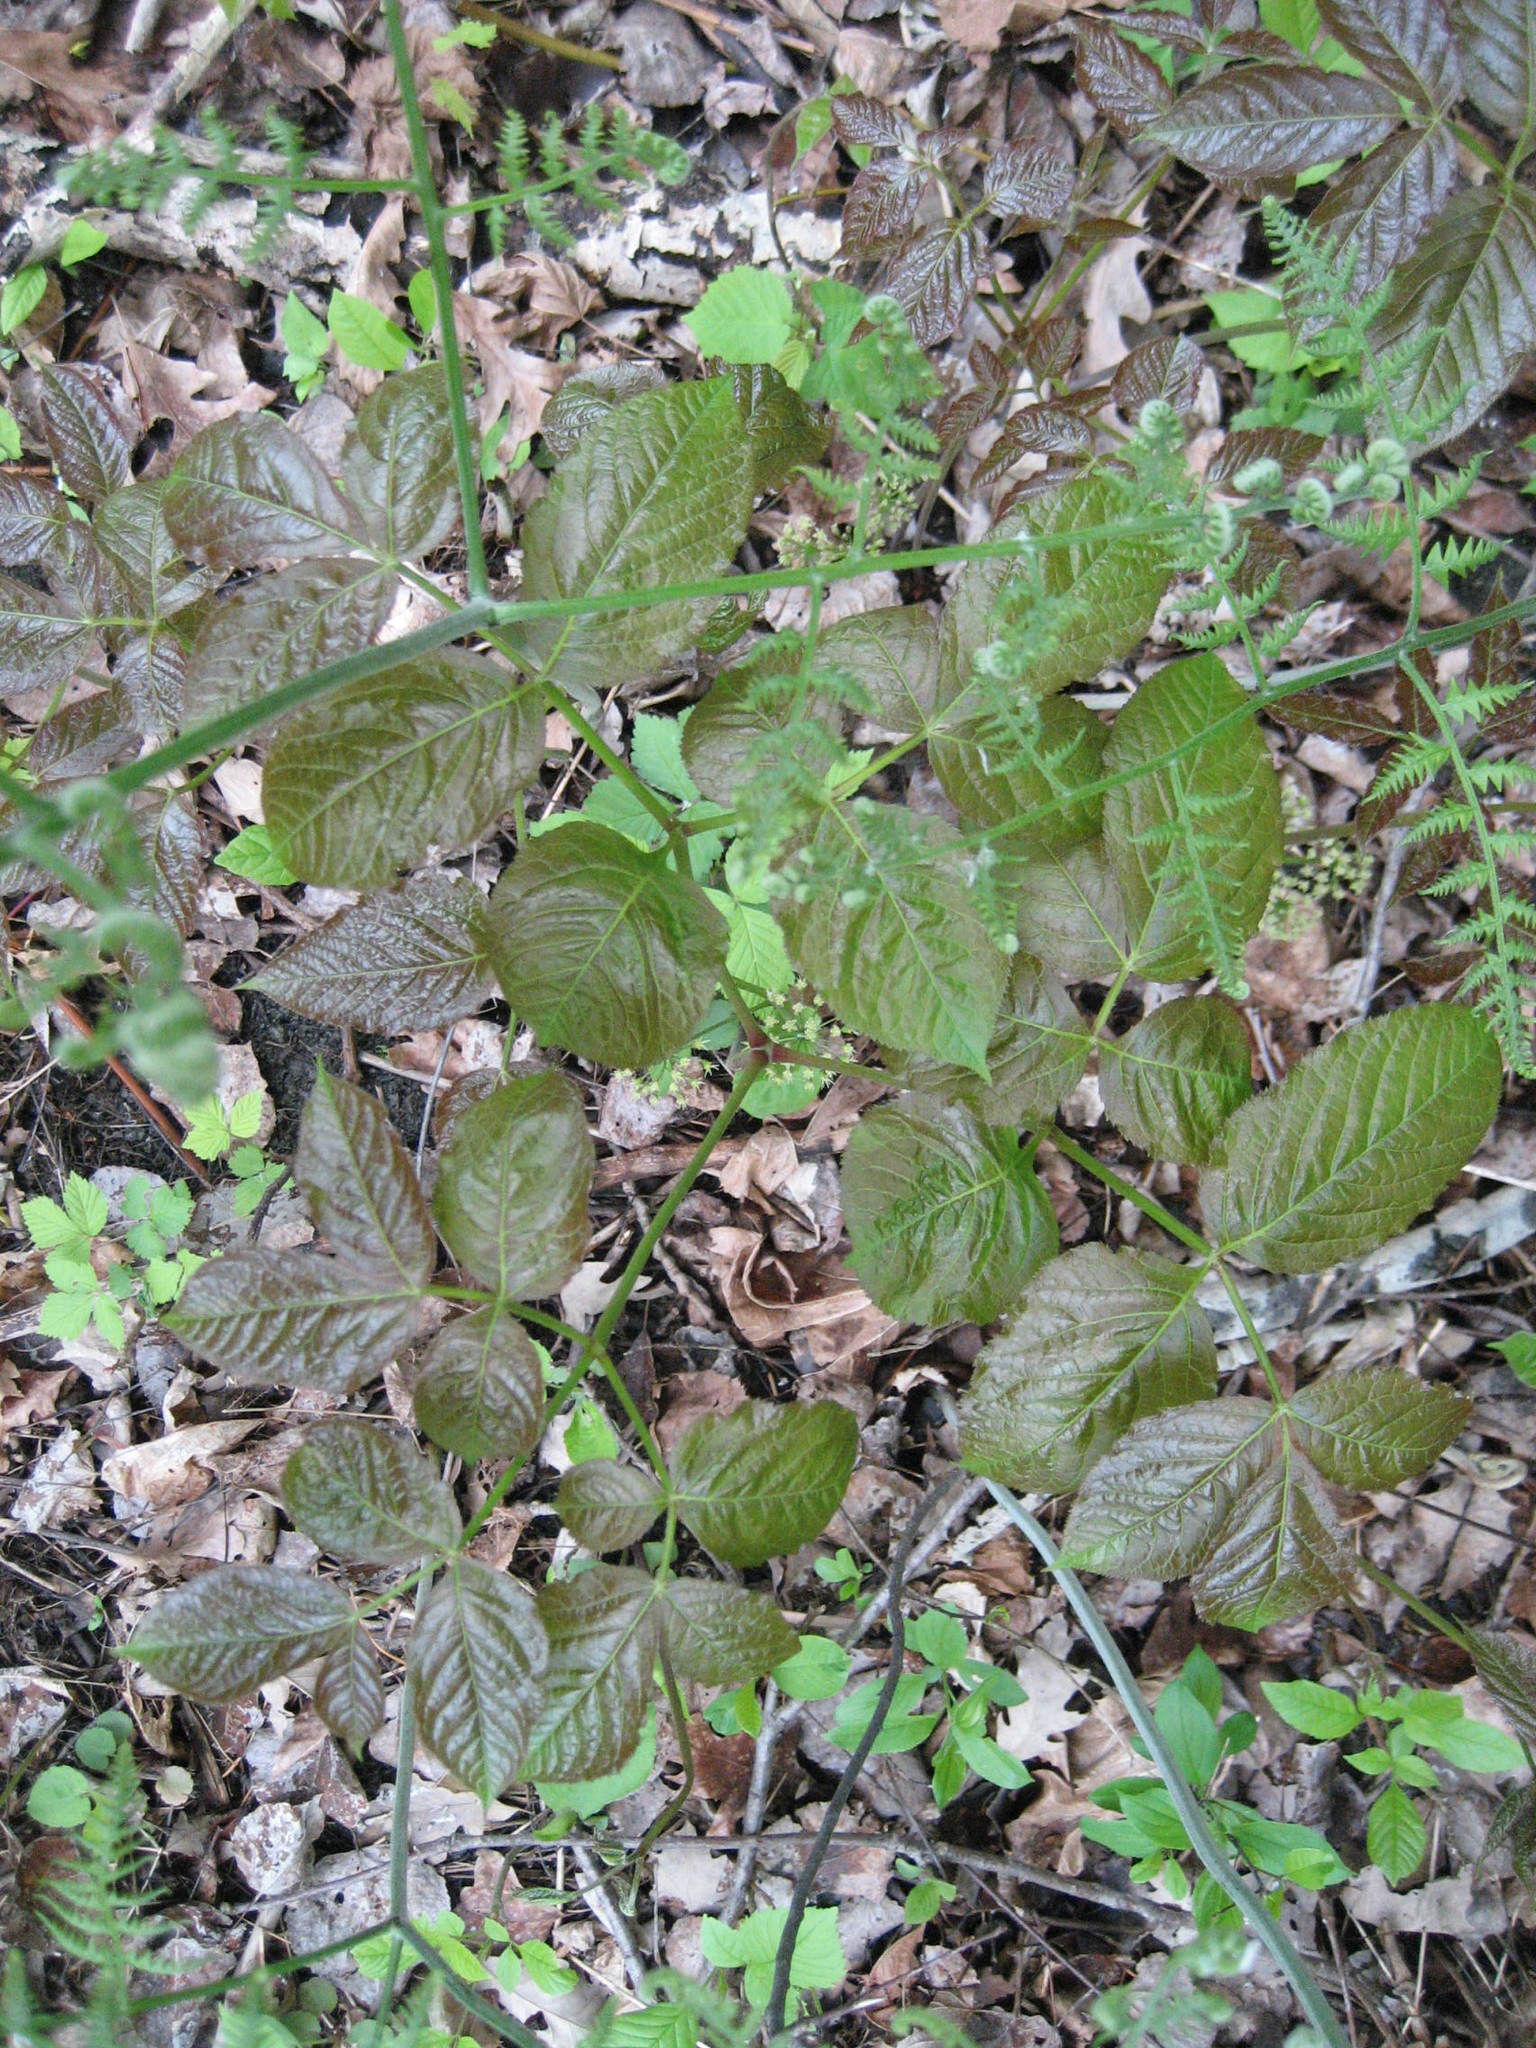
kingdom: Plantae
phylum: Tracheophyta
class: Magnoliopsida
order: Apiales
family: Araliaceae
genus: Aralia
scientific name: Aralia nudicaulis
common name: Wild sarsaparilla
